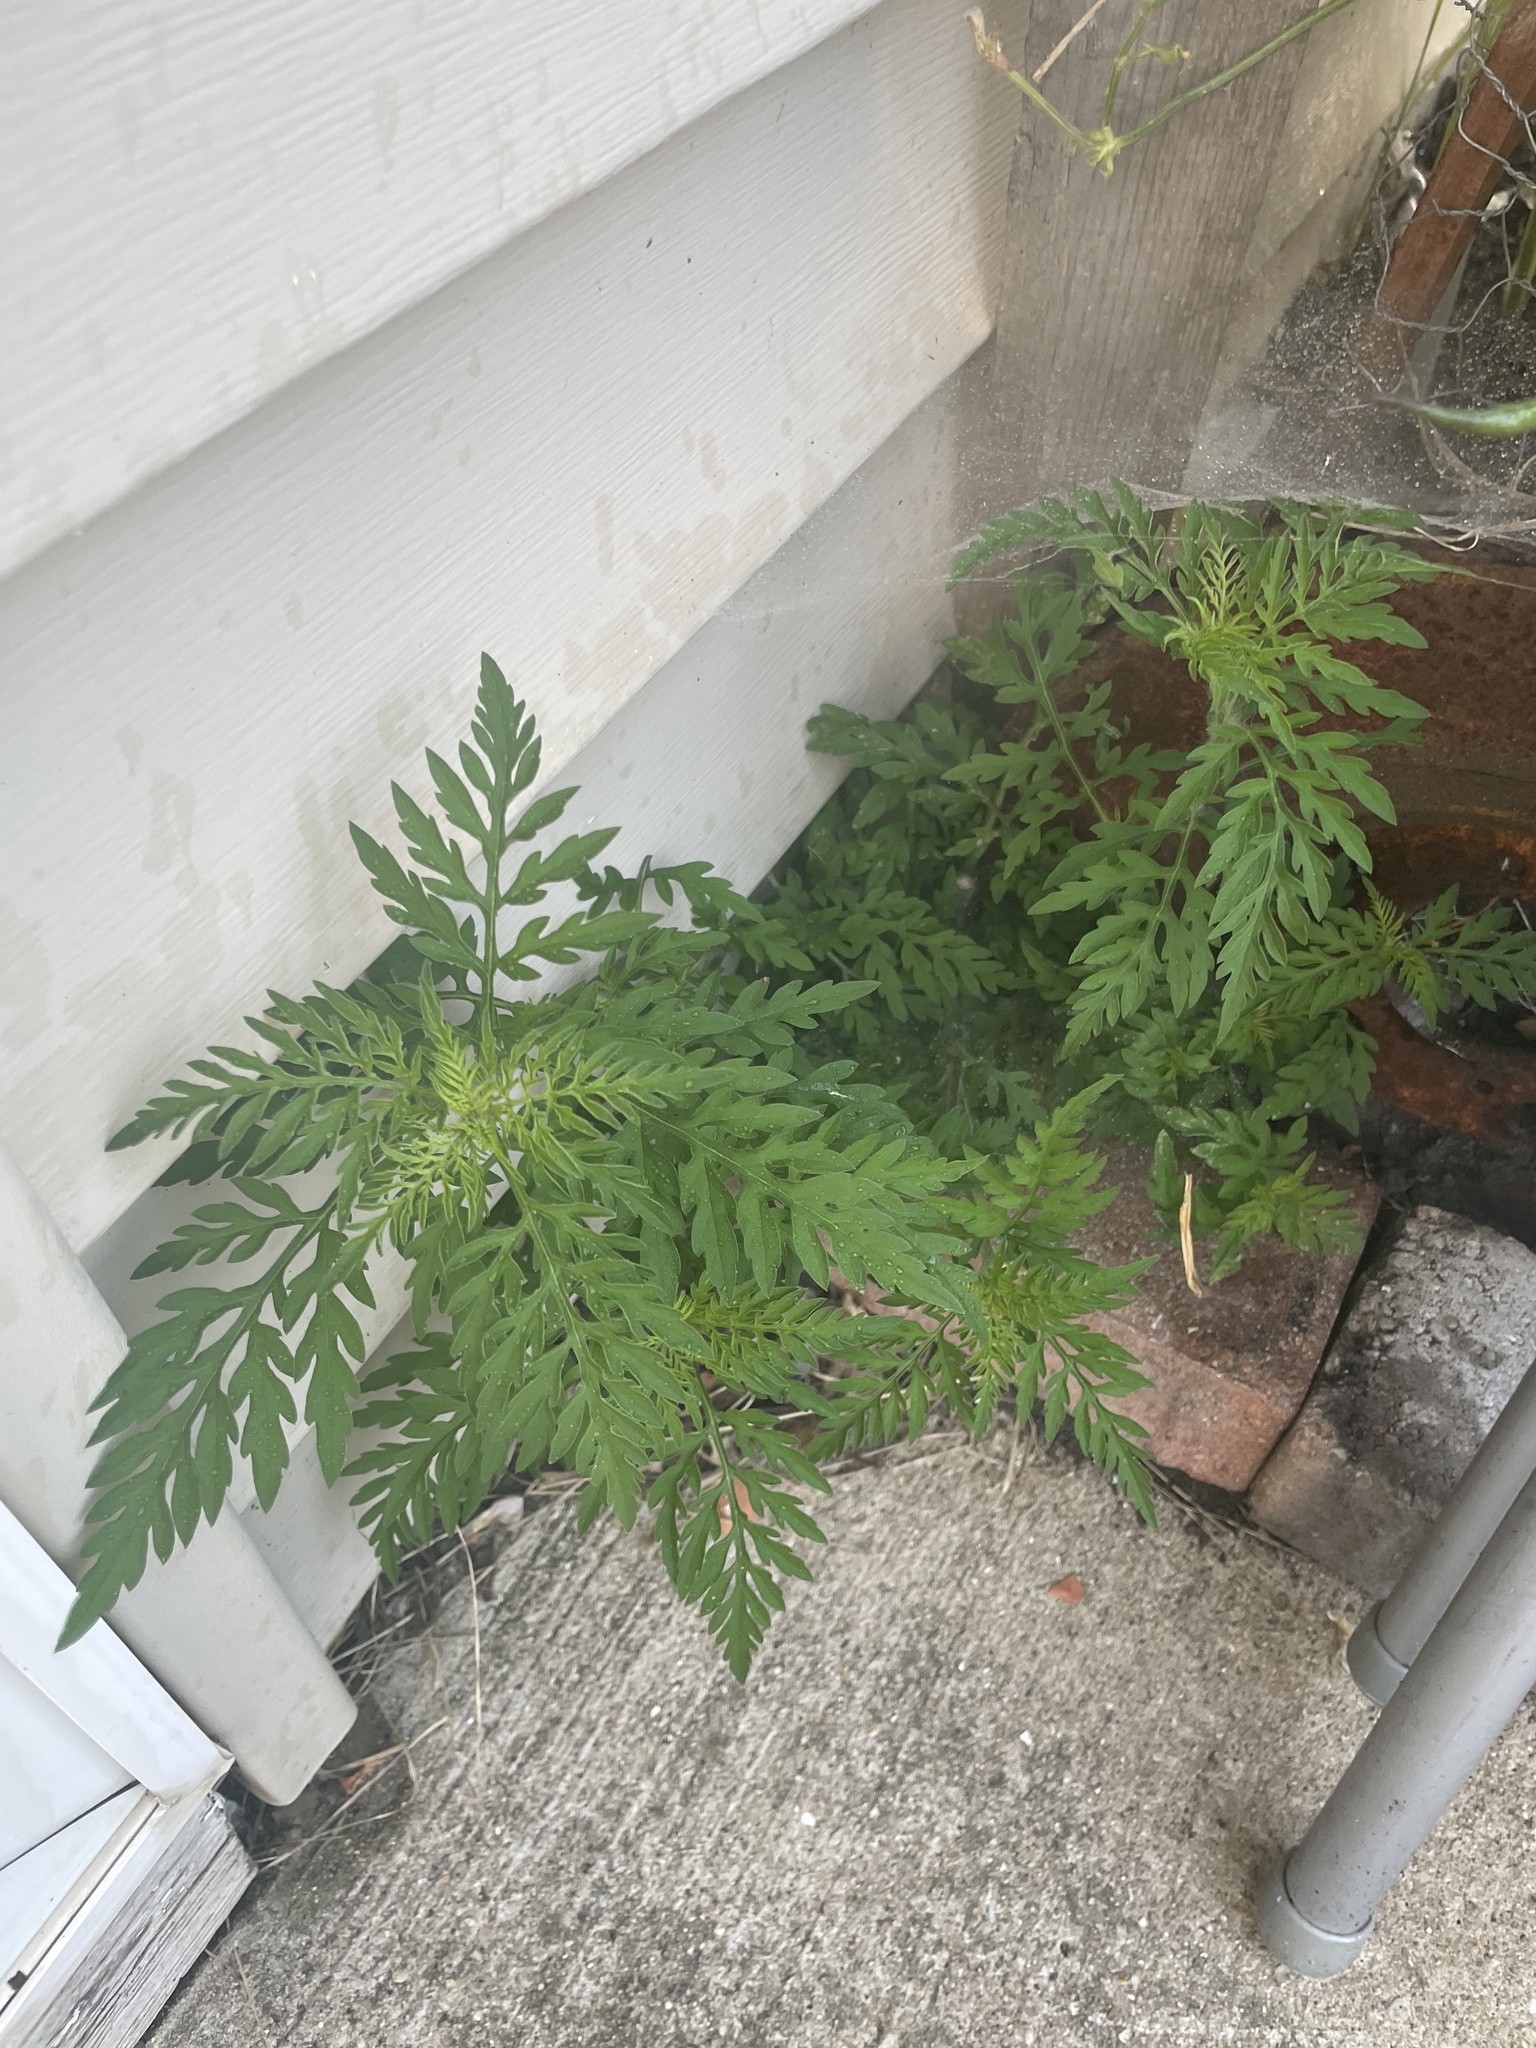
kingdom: Plantae
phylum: Tracheophyta
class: Magnoliopsida
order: Asterales
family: Asteraceae
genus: Ambrosia
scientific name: Ambrosia artemisiifolia
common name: Annual ragweed
